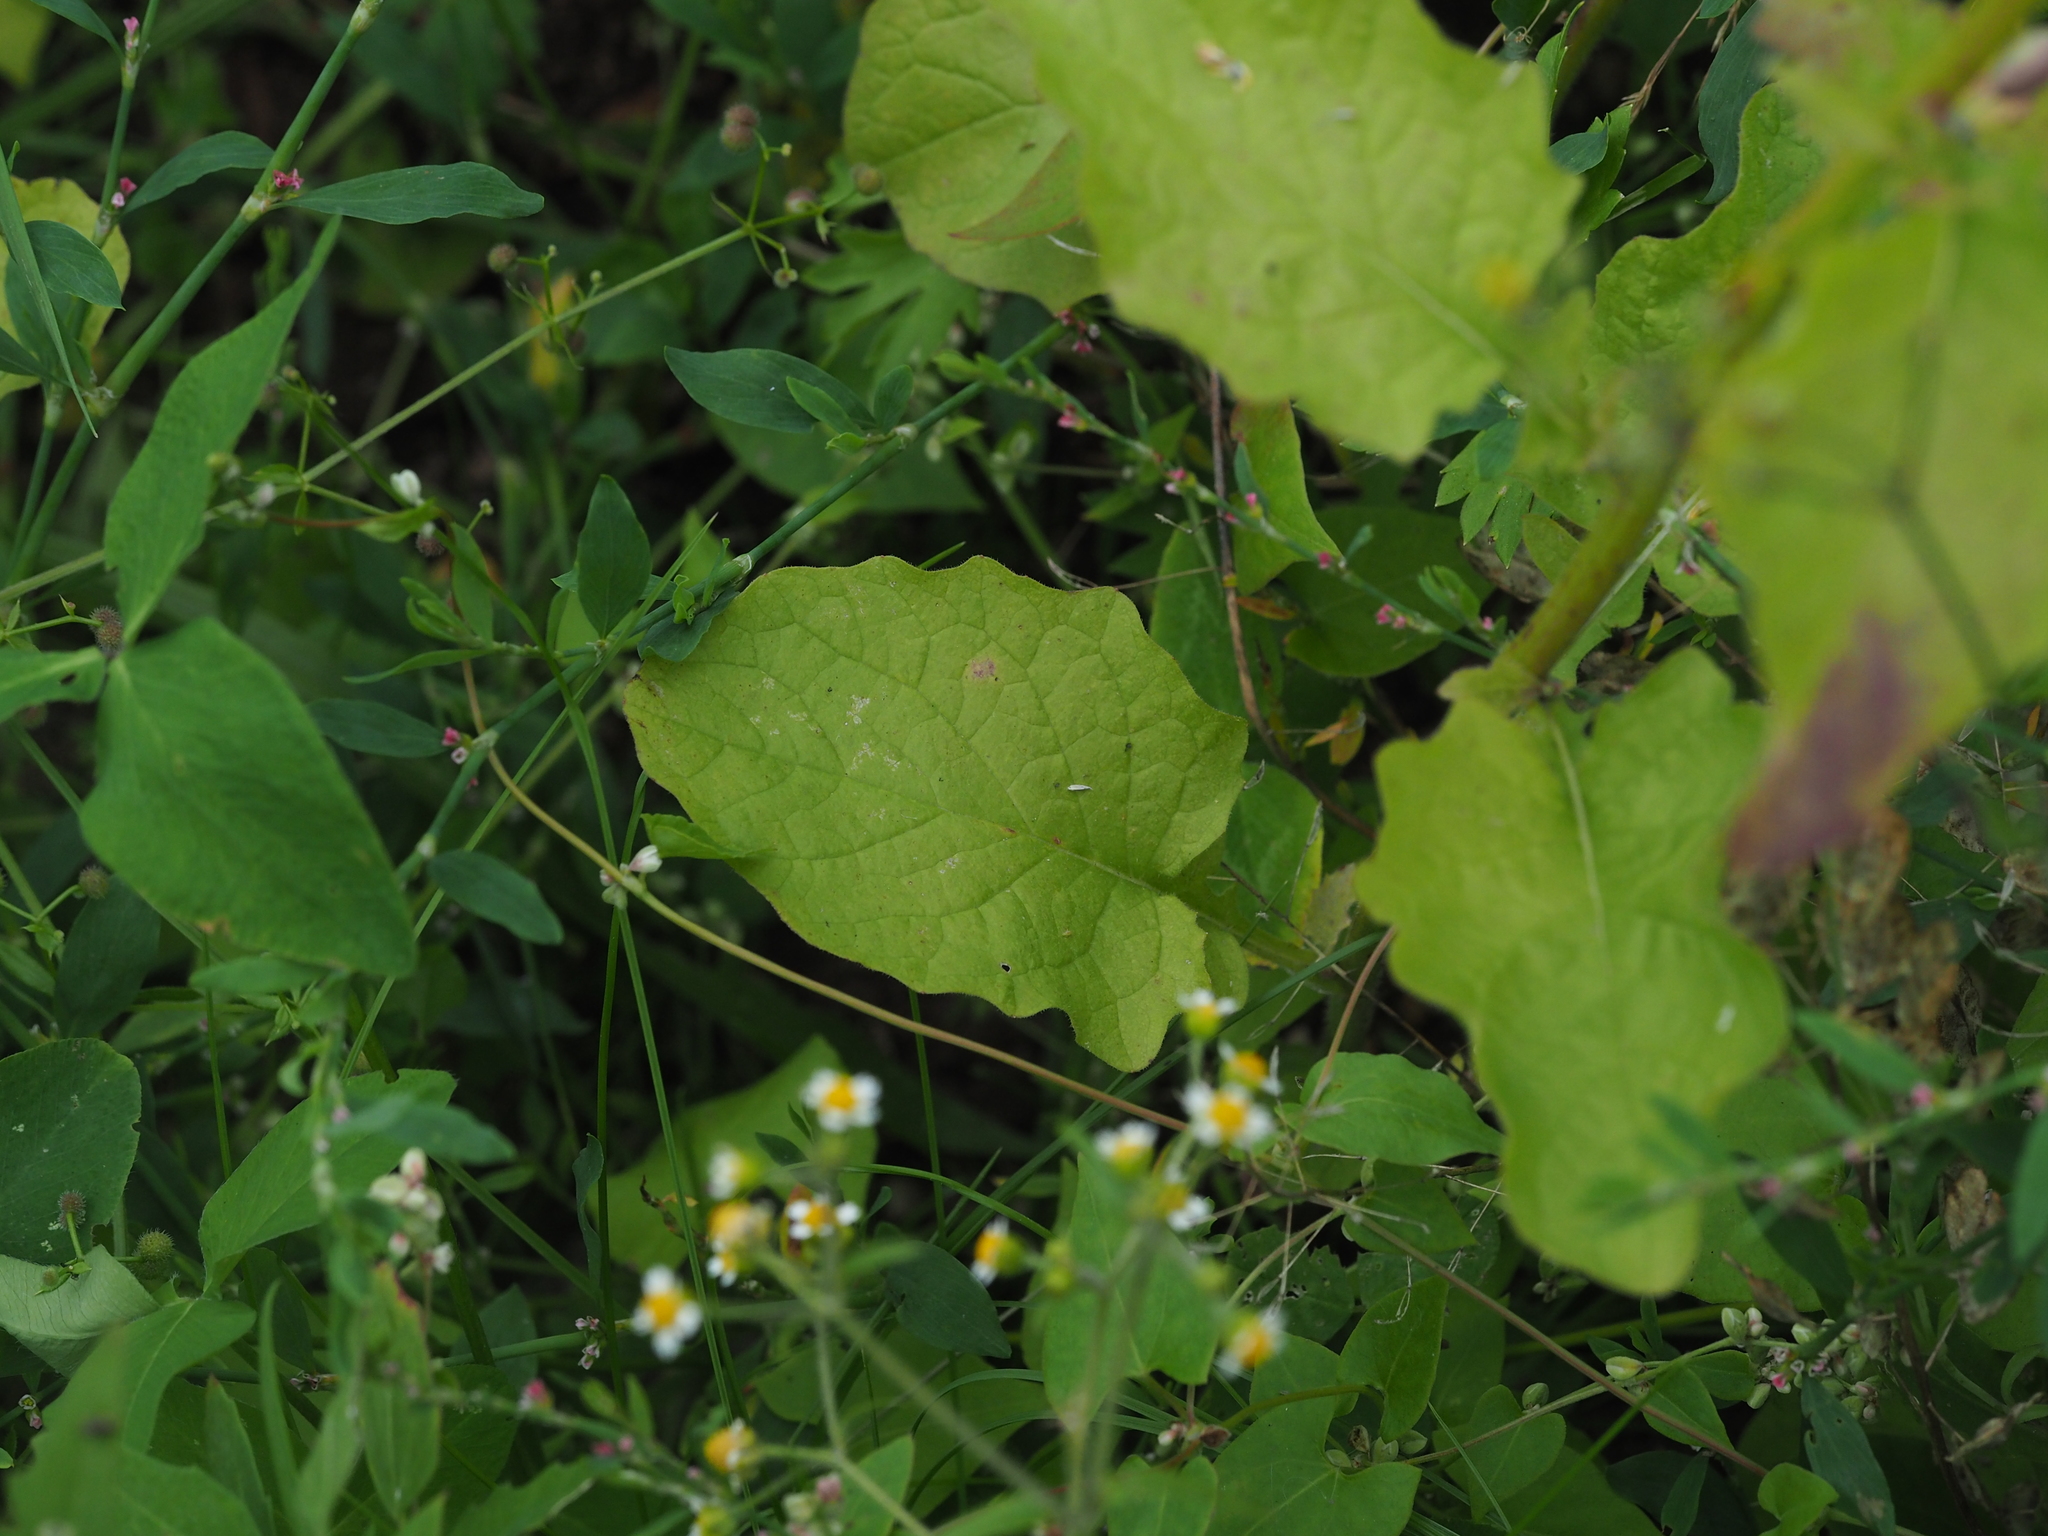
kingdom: Plantae
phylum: Tracheophyta
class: Magnoliopsida
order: Asterales
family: Asteraceae
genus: Lapsana
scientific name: Lapsana communis
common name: Nipplewort
